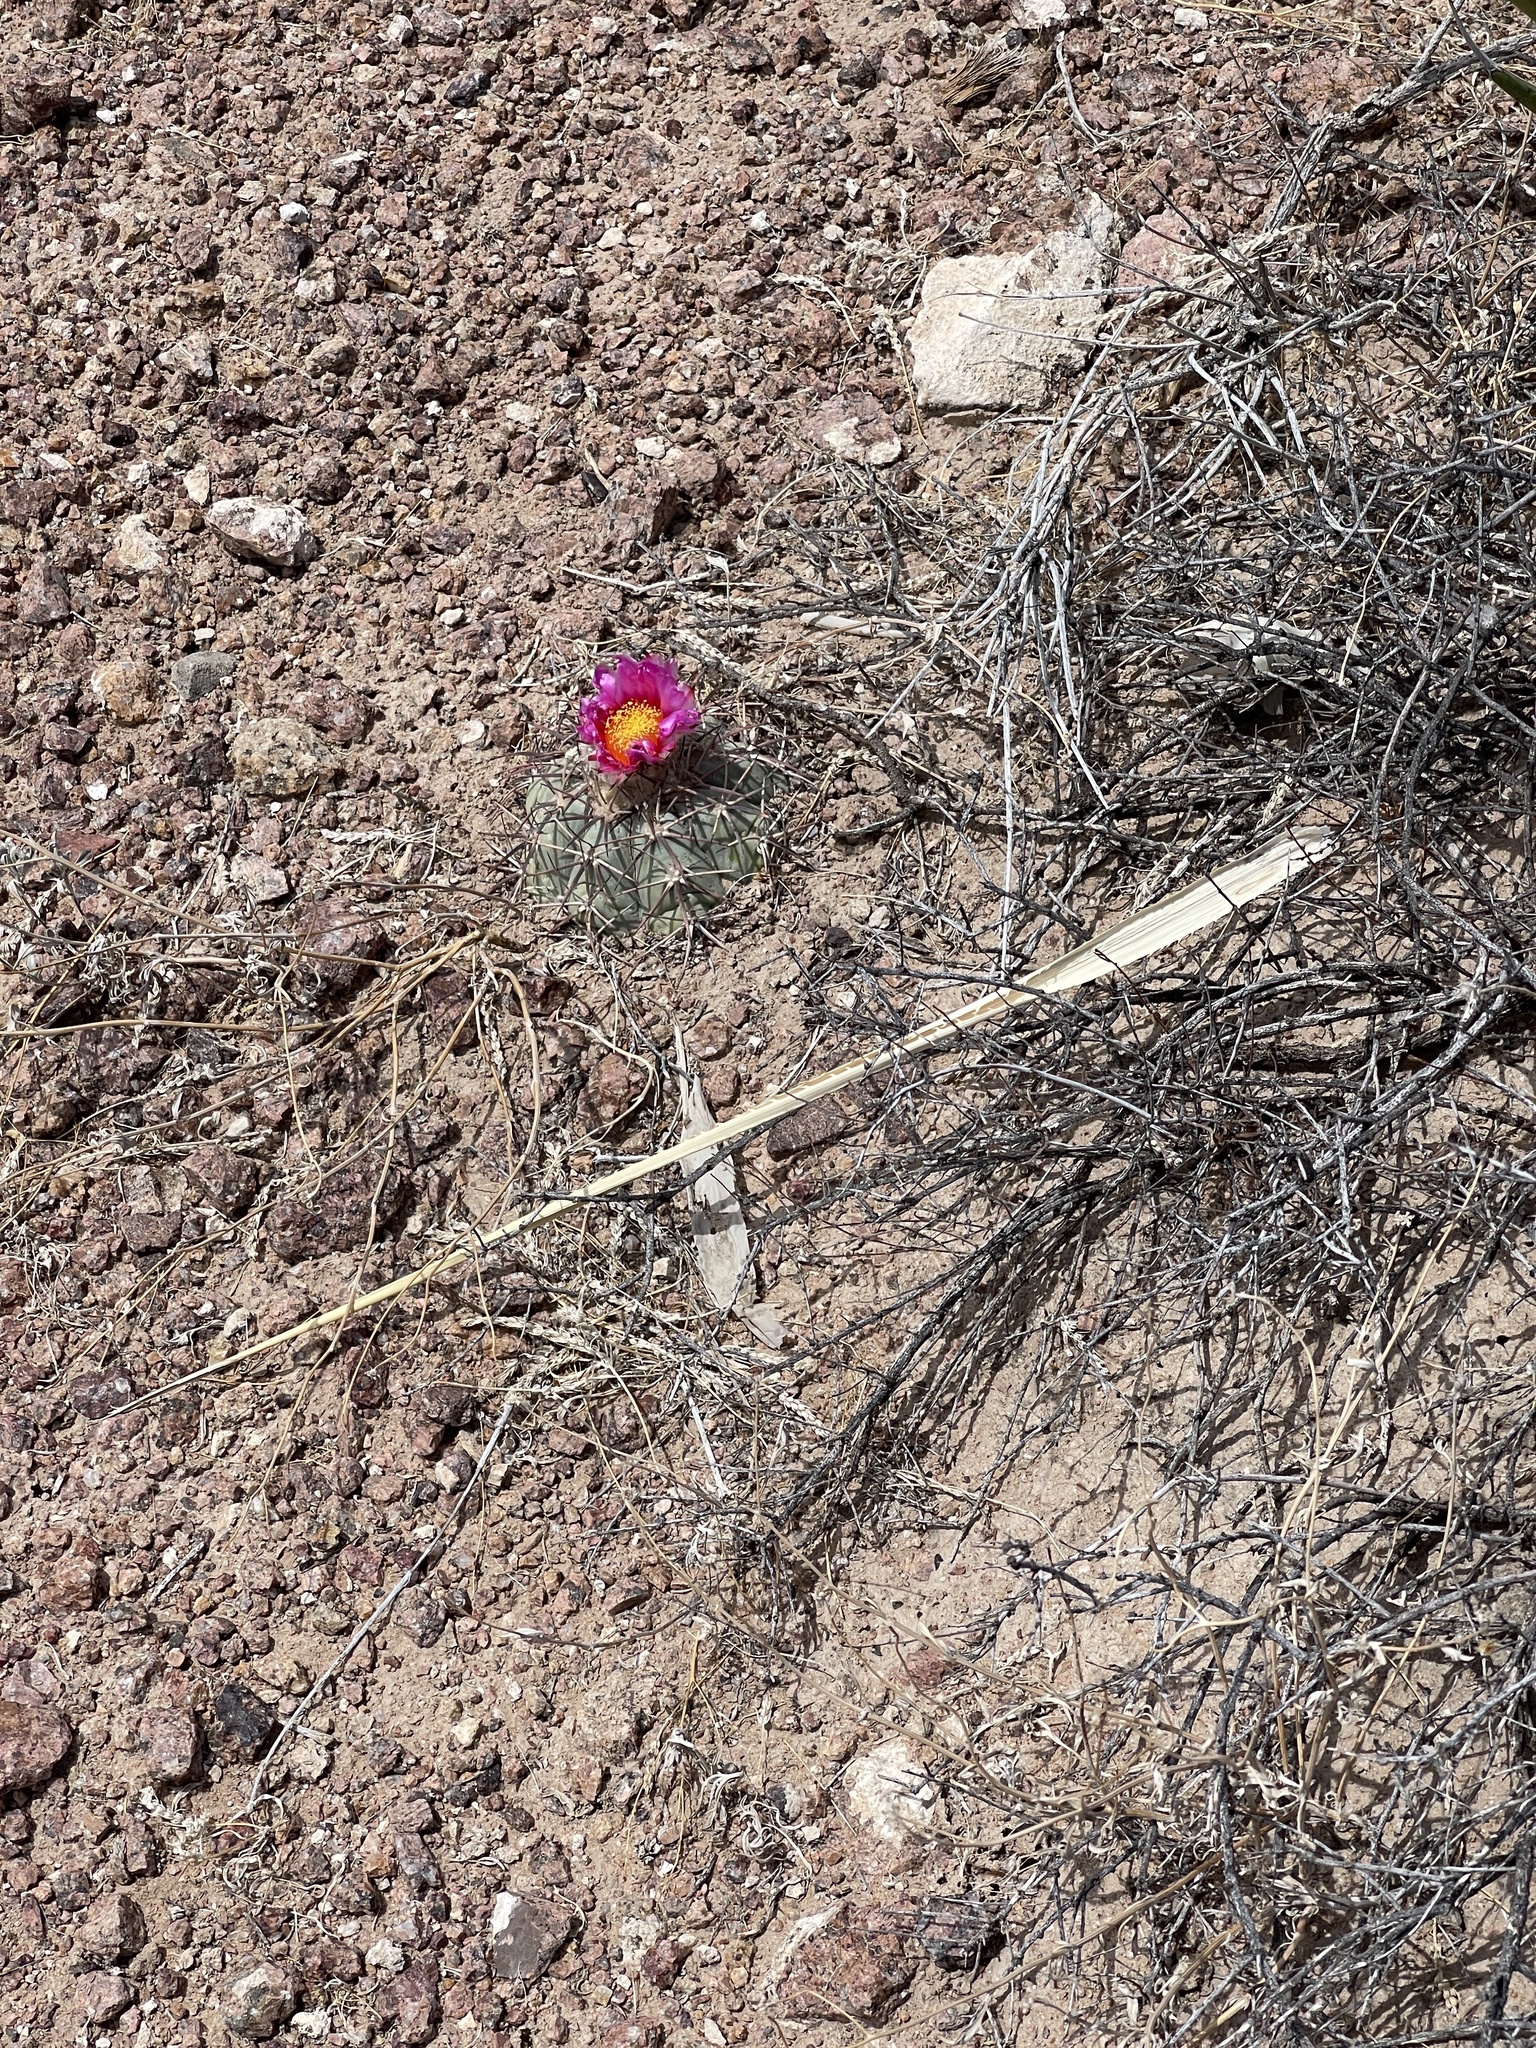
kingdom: Plantae
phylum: Tracheophyta
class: Magnoliopsida
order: Caryophyllales
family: Cactaceae
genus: Echinocactus
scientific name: Echinocactus horizonthalonius
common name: Devilshead
